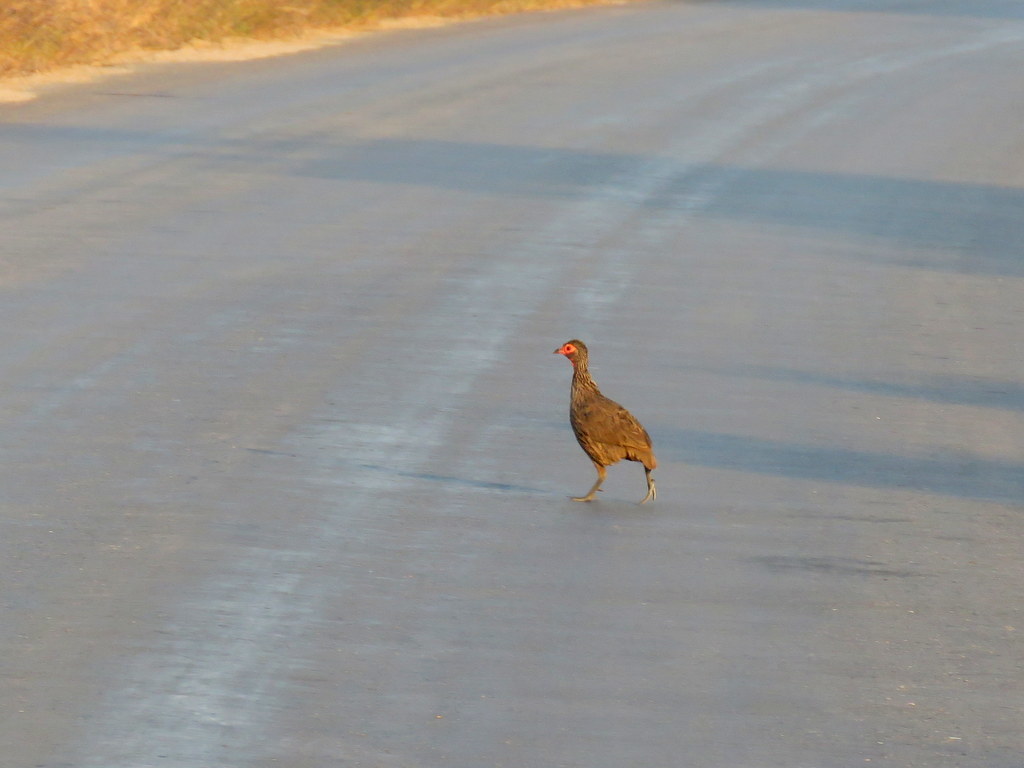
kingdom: Animalia
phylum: Chordata
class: Aves
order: Galliformes
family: Phasianidae
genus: Pternistis
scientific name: Pternistis swainsonii
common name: Swainson's spurfowl
